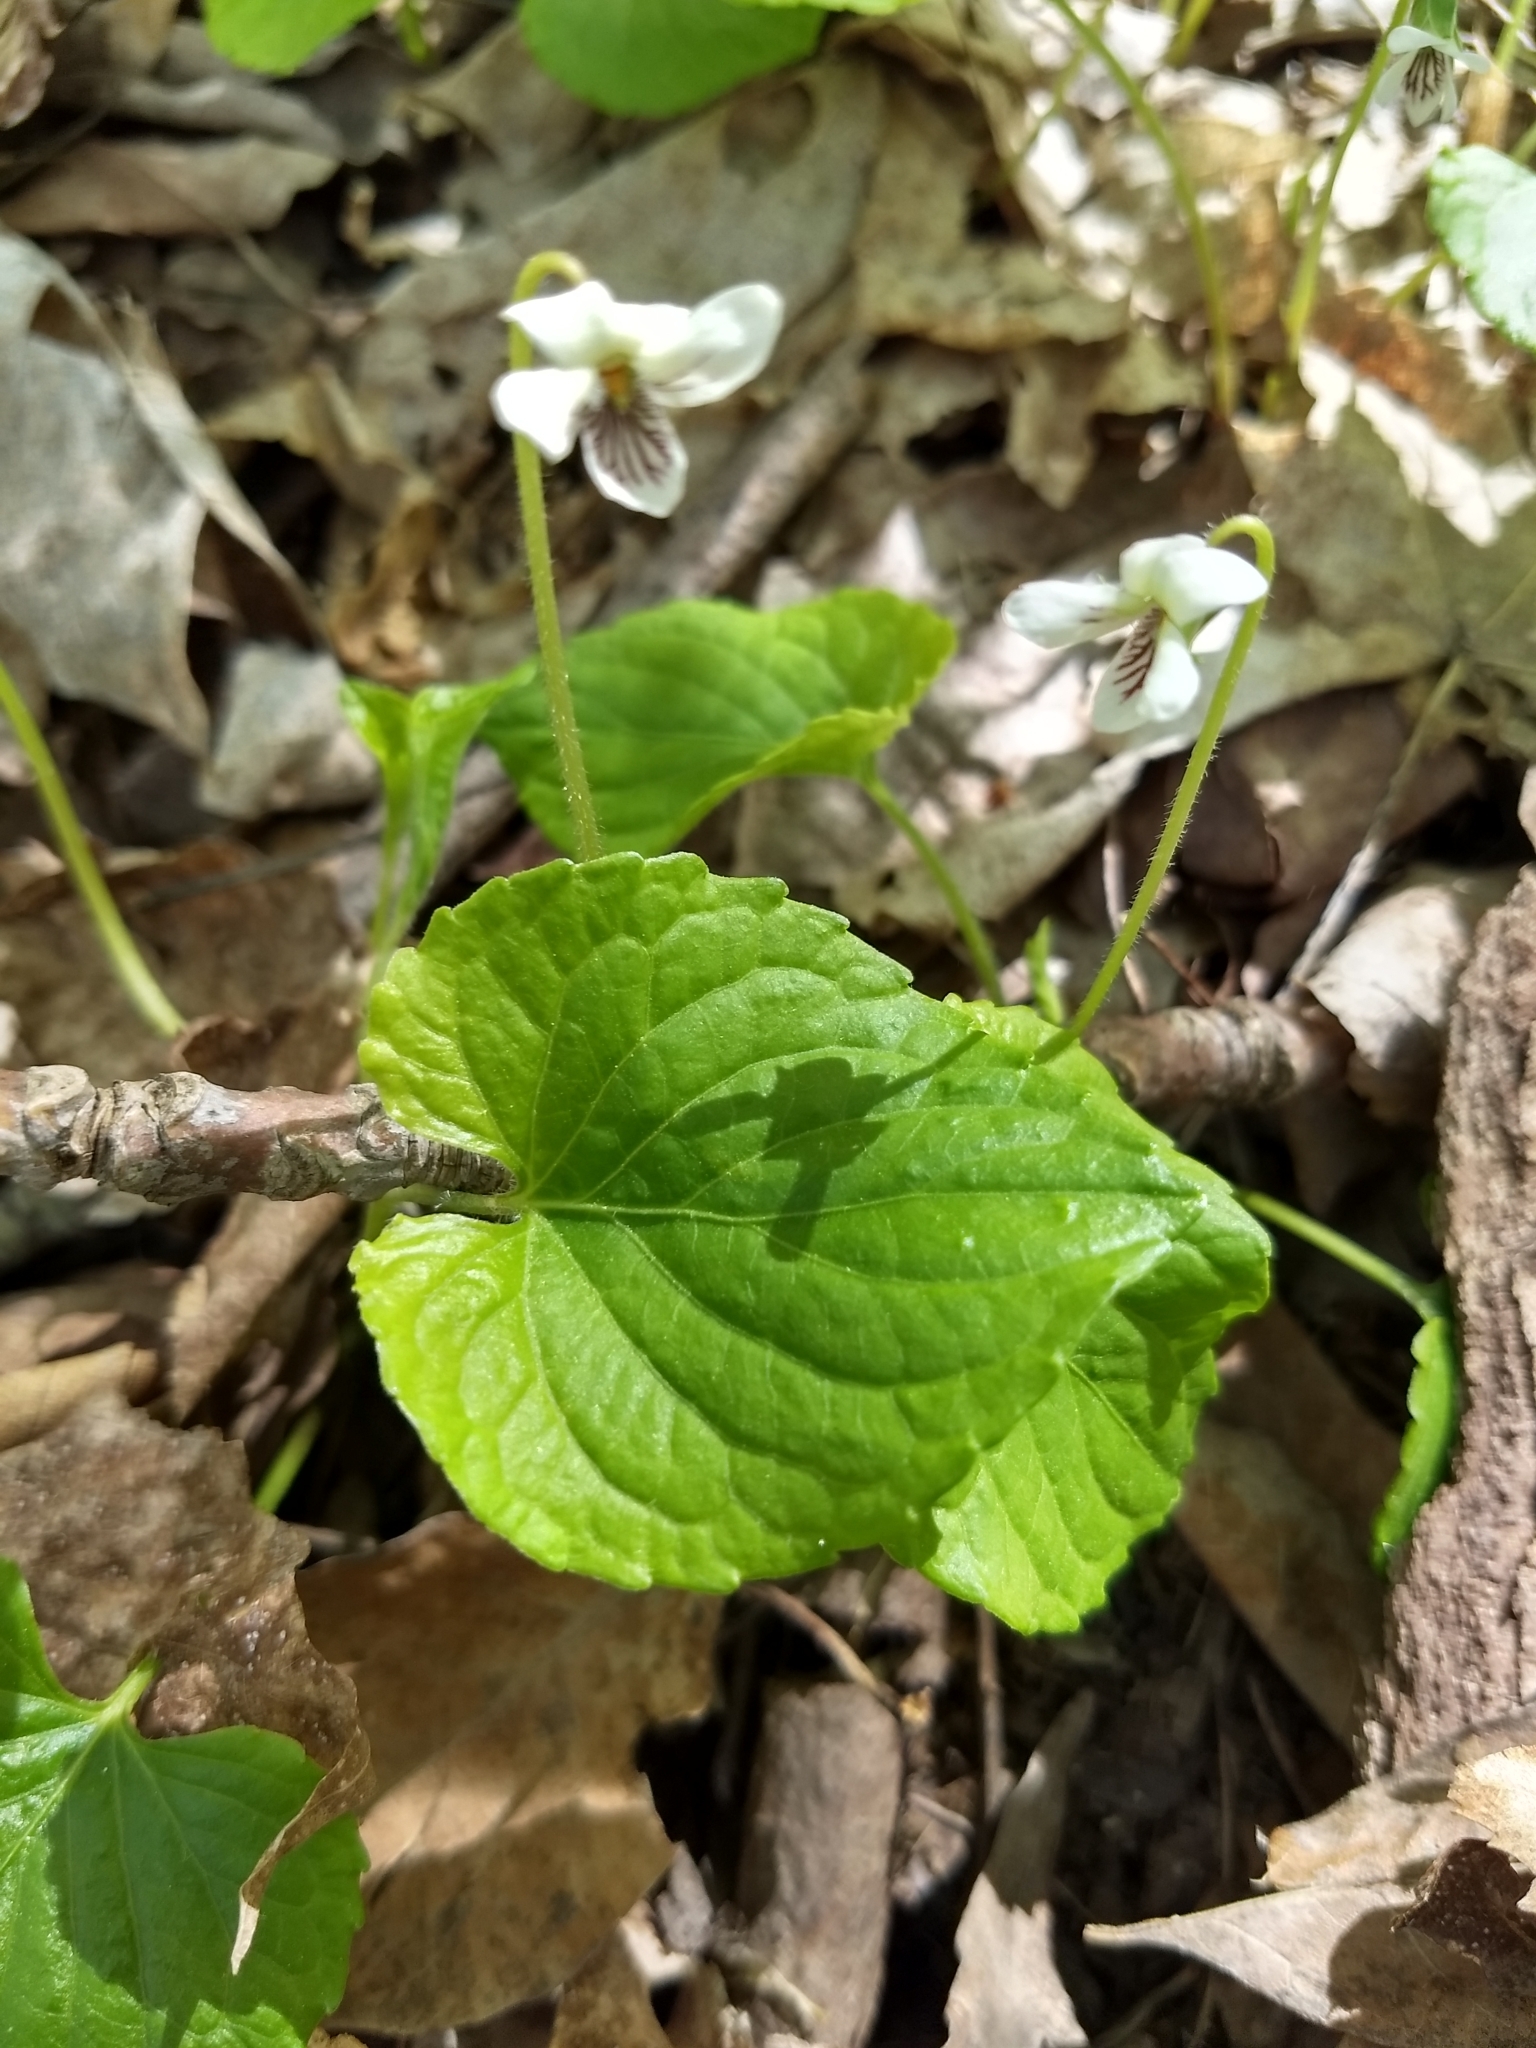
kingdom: Plantae
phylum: Tracheophyta
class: Magnoliopsida
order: Malpighiales
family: Violaceae
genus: Viola
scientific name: Viola incognita
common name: Largeleaf white violet
